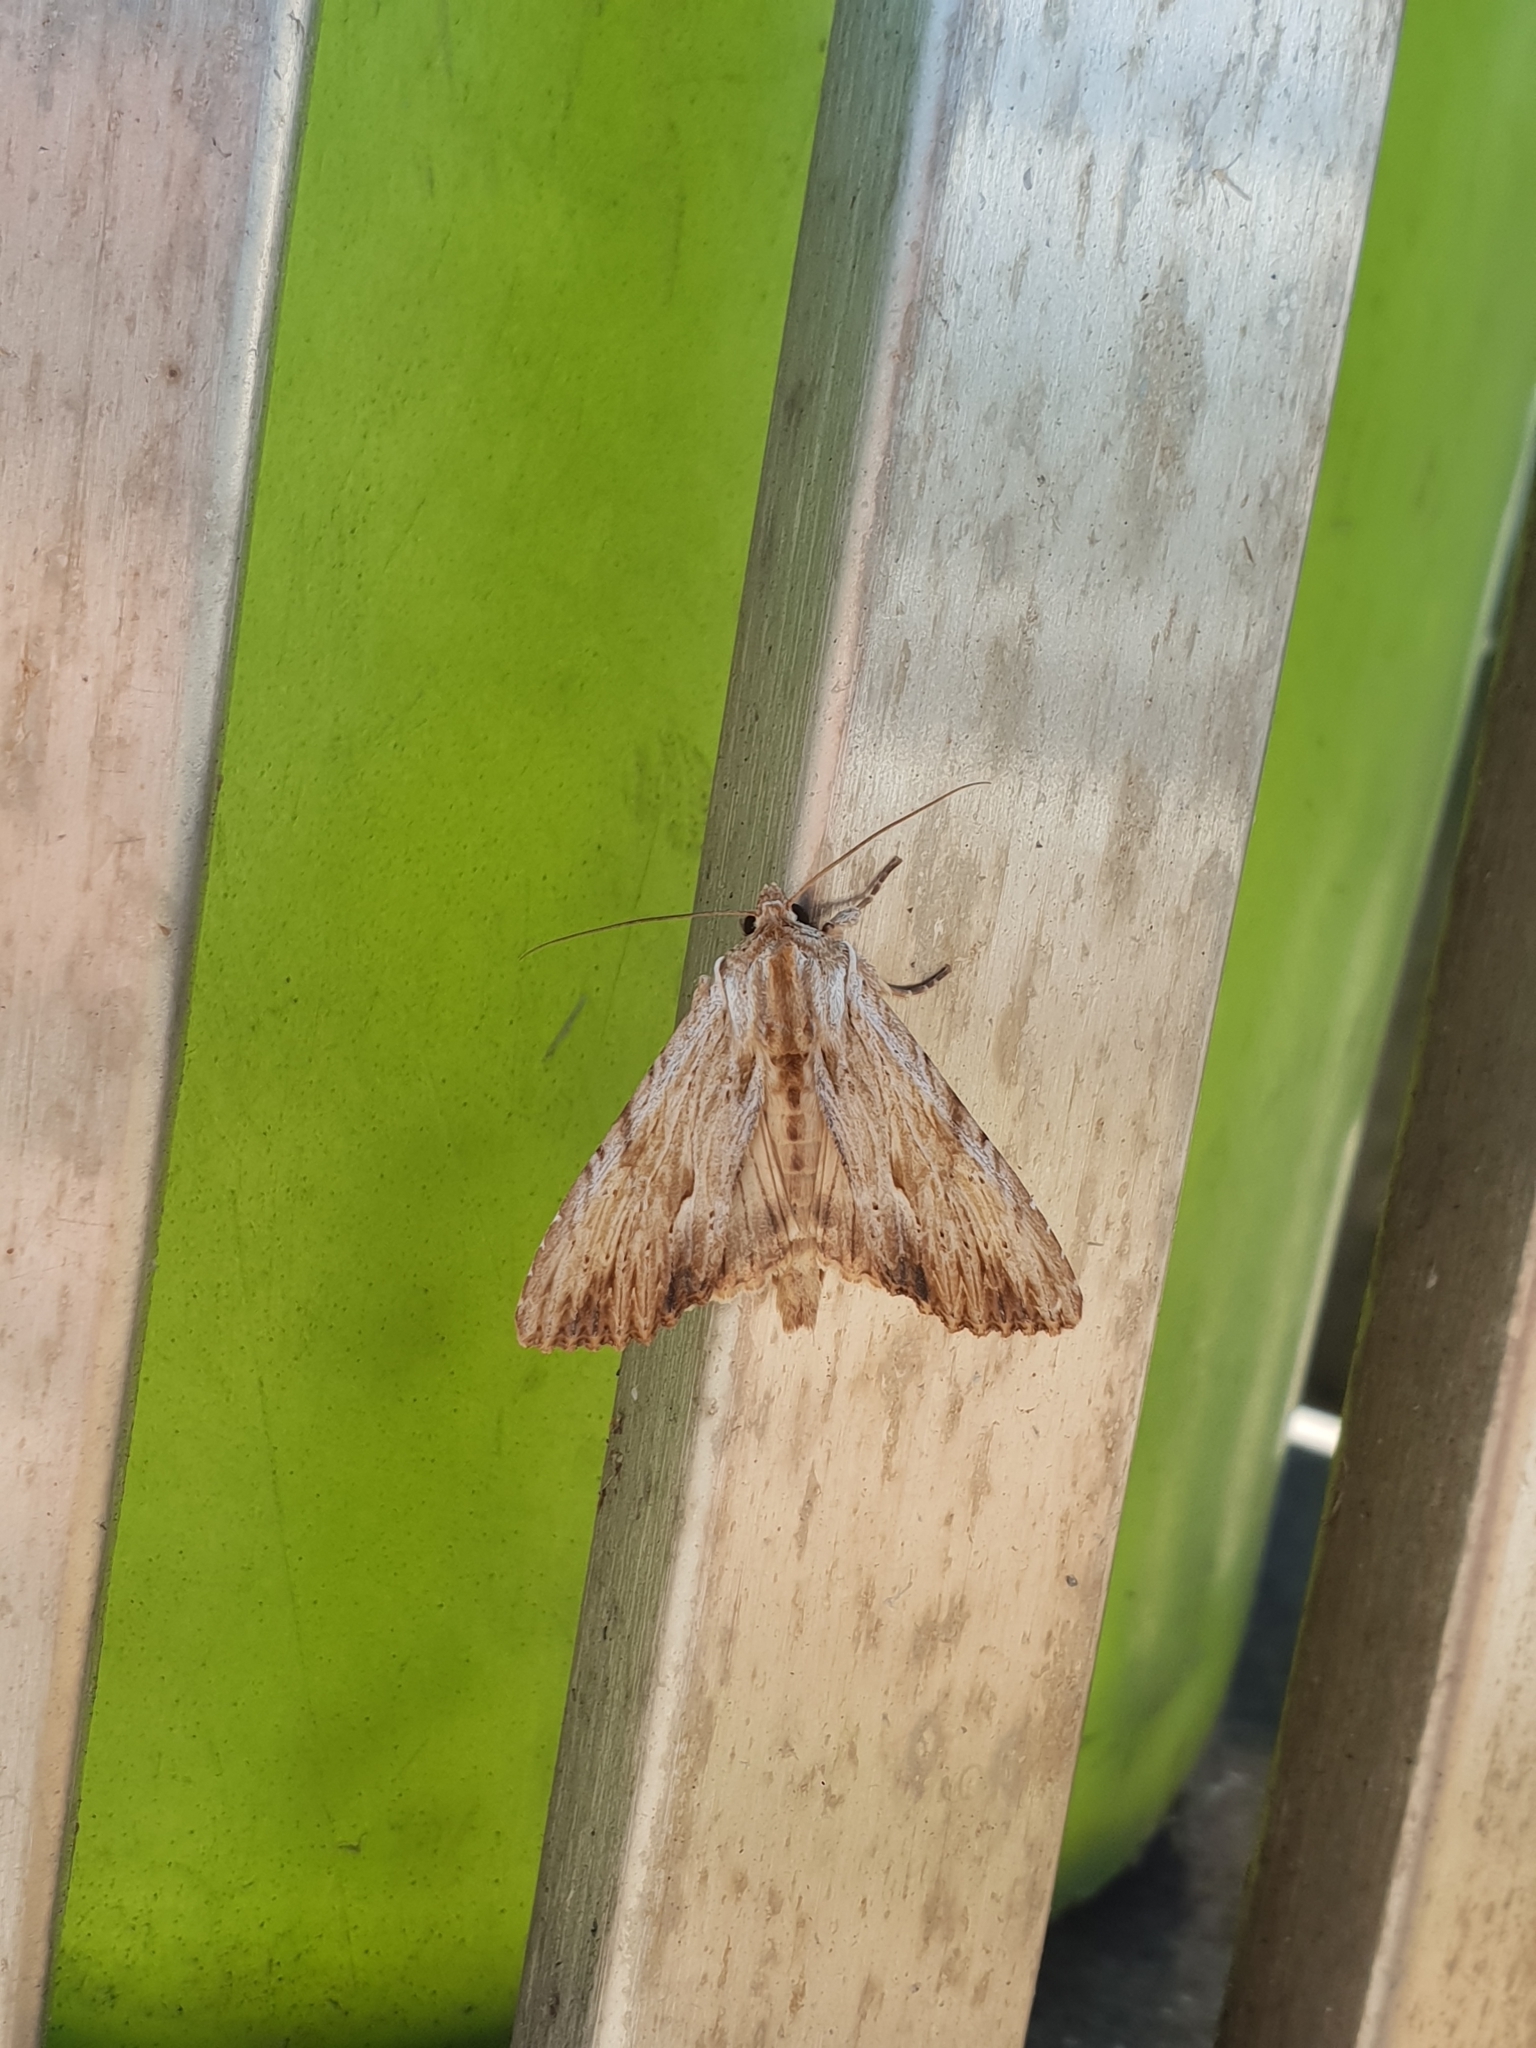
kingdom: Animalia
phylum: Arthropoda
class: Insecta
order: Lepidoptera
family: Noctuidae
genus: Apamea
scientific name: Apamea lithoxylaea
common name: Light arches
